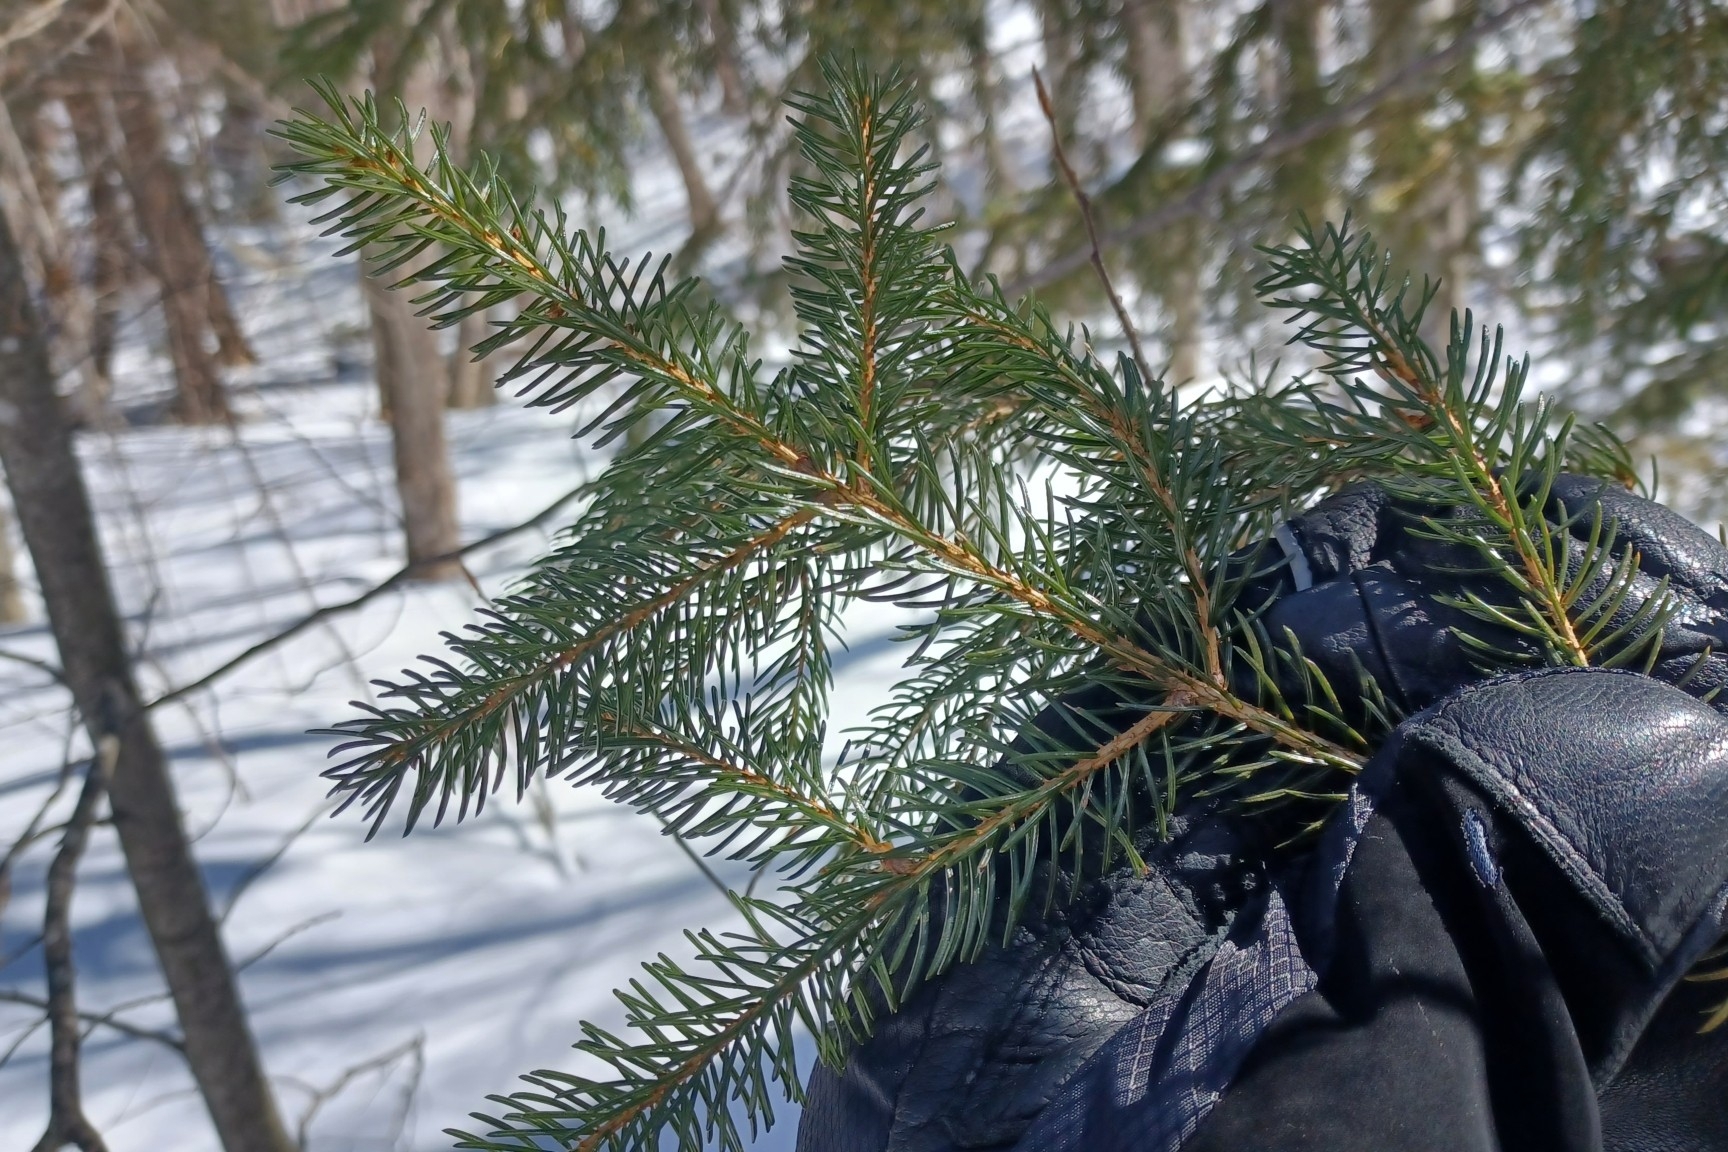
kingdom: Plantae
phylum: Tracheophyta
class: Pinopsida
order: Pinales
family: Pinaceae
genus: Picea
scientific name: Picea rubens
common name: Red spruce
